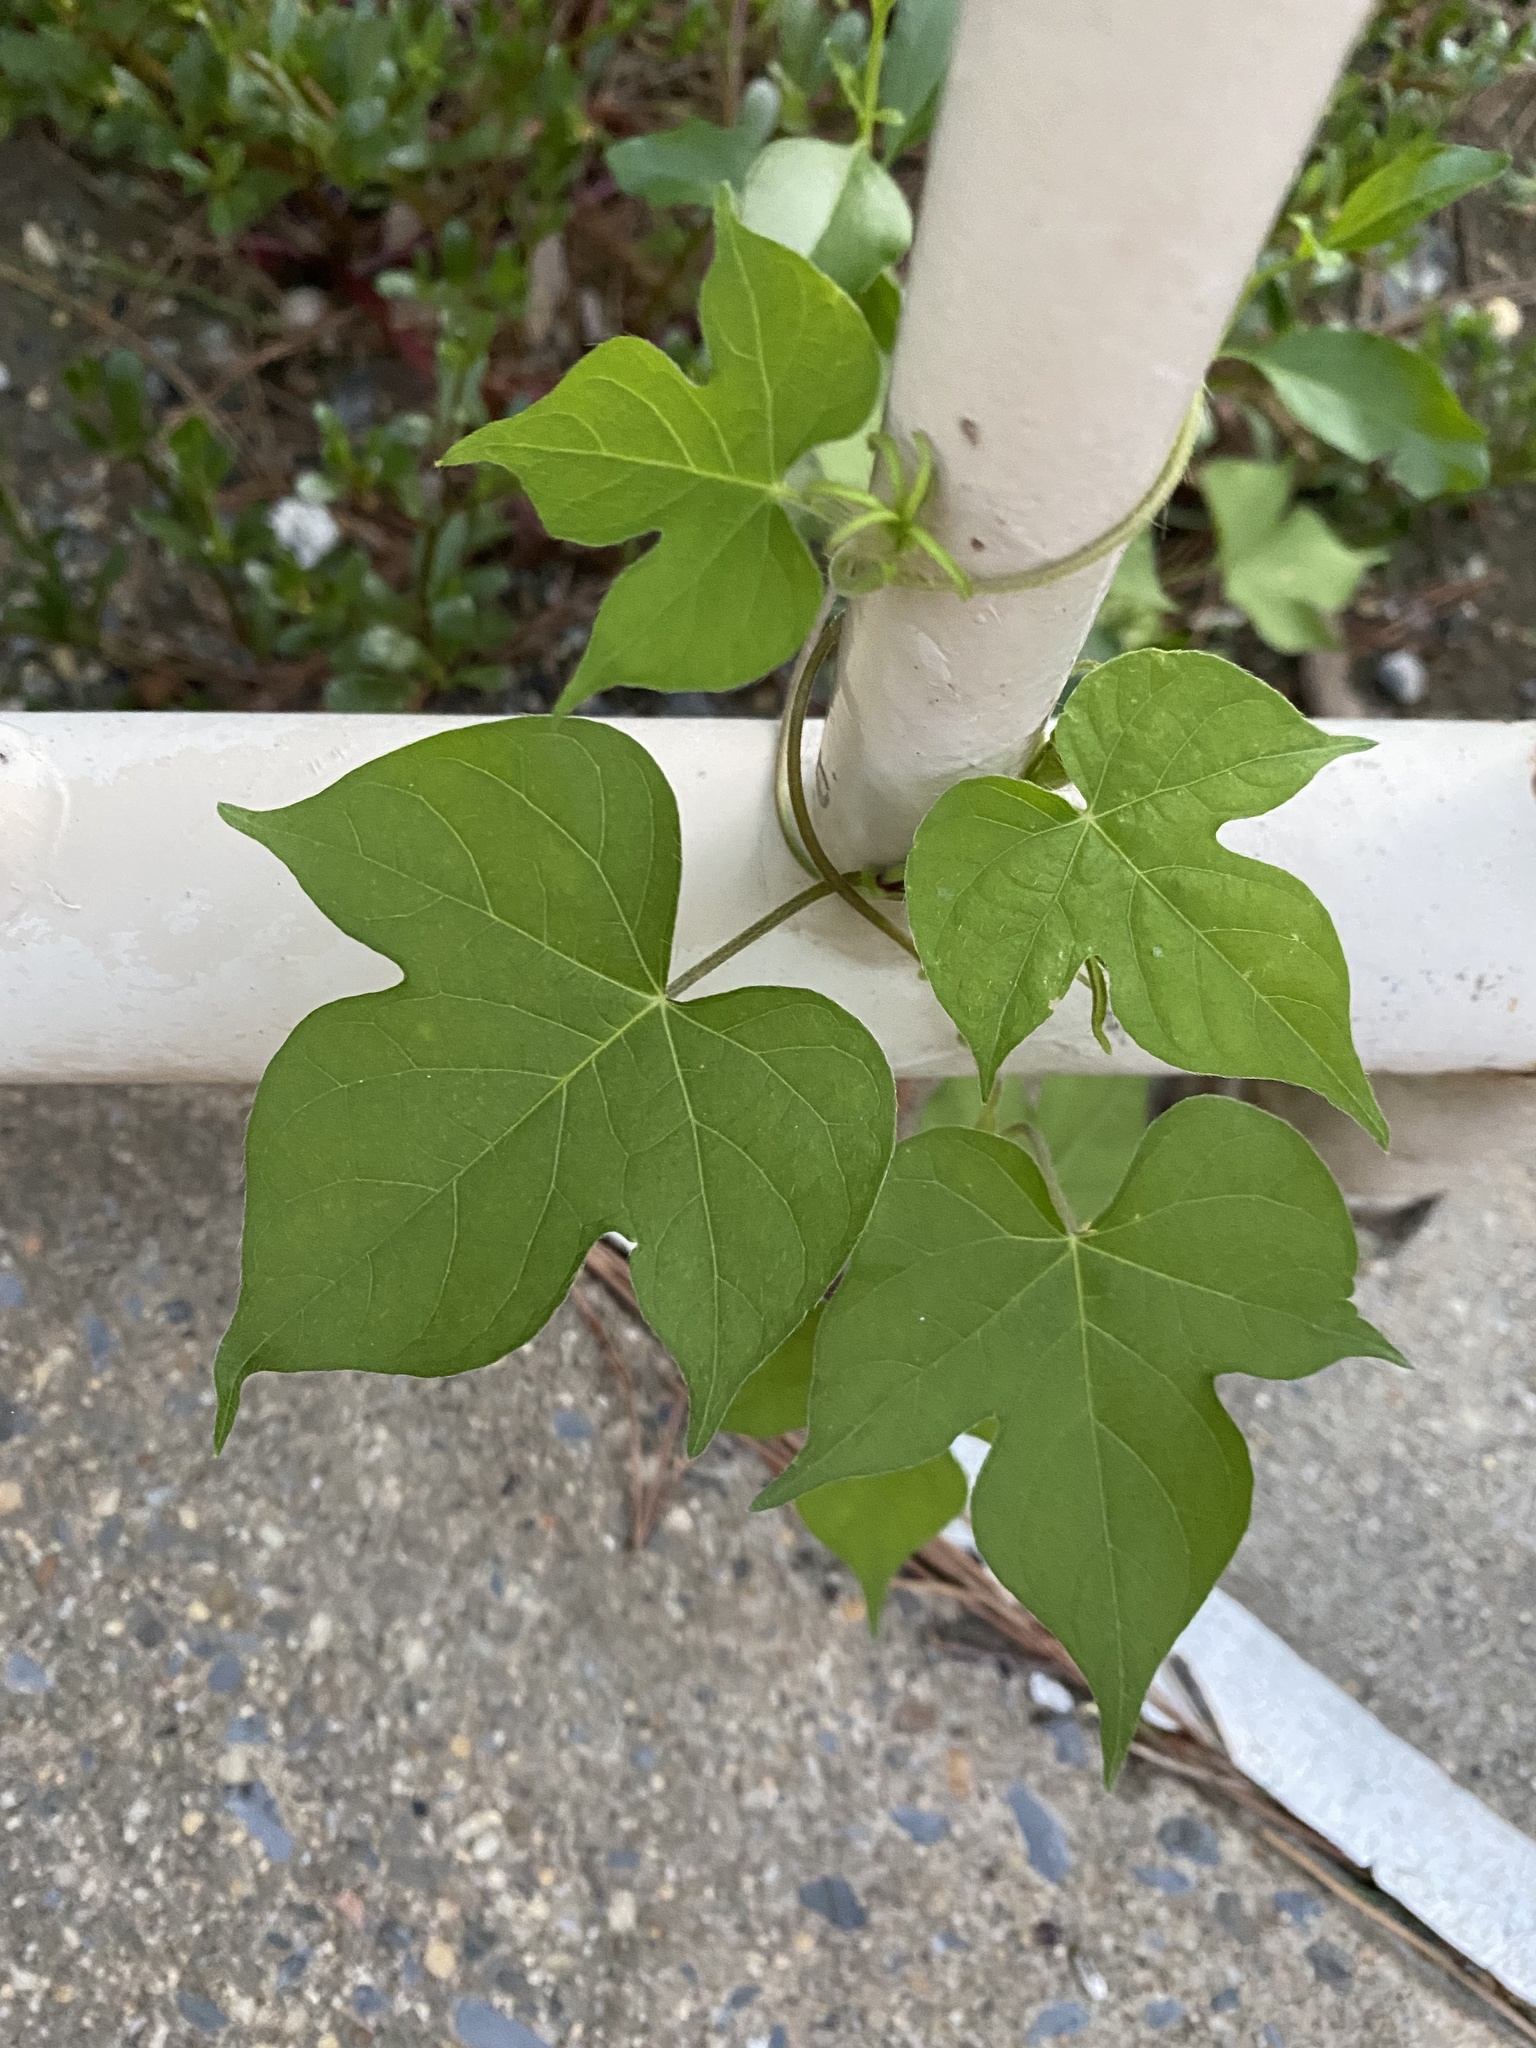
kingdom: Plantae
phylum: Tracheophyta
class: Magnoliopsida
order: Solanales
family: Convolvulaceae
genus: Ipomoea
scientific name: Ipomoea hederacea
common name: Ivy-leaved morning-glory
